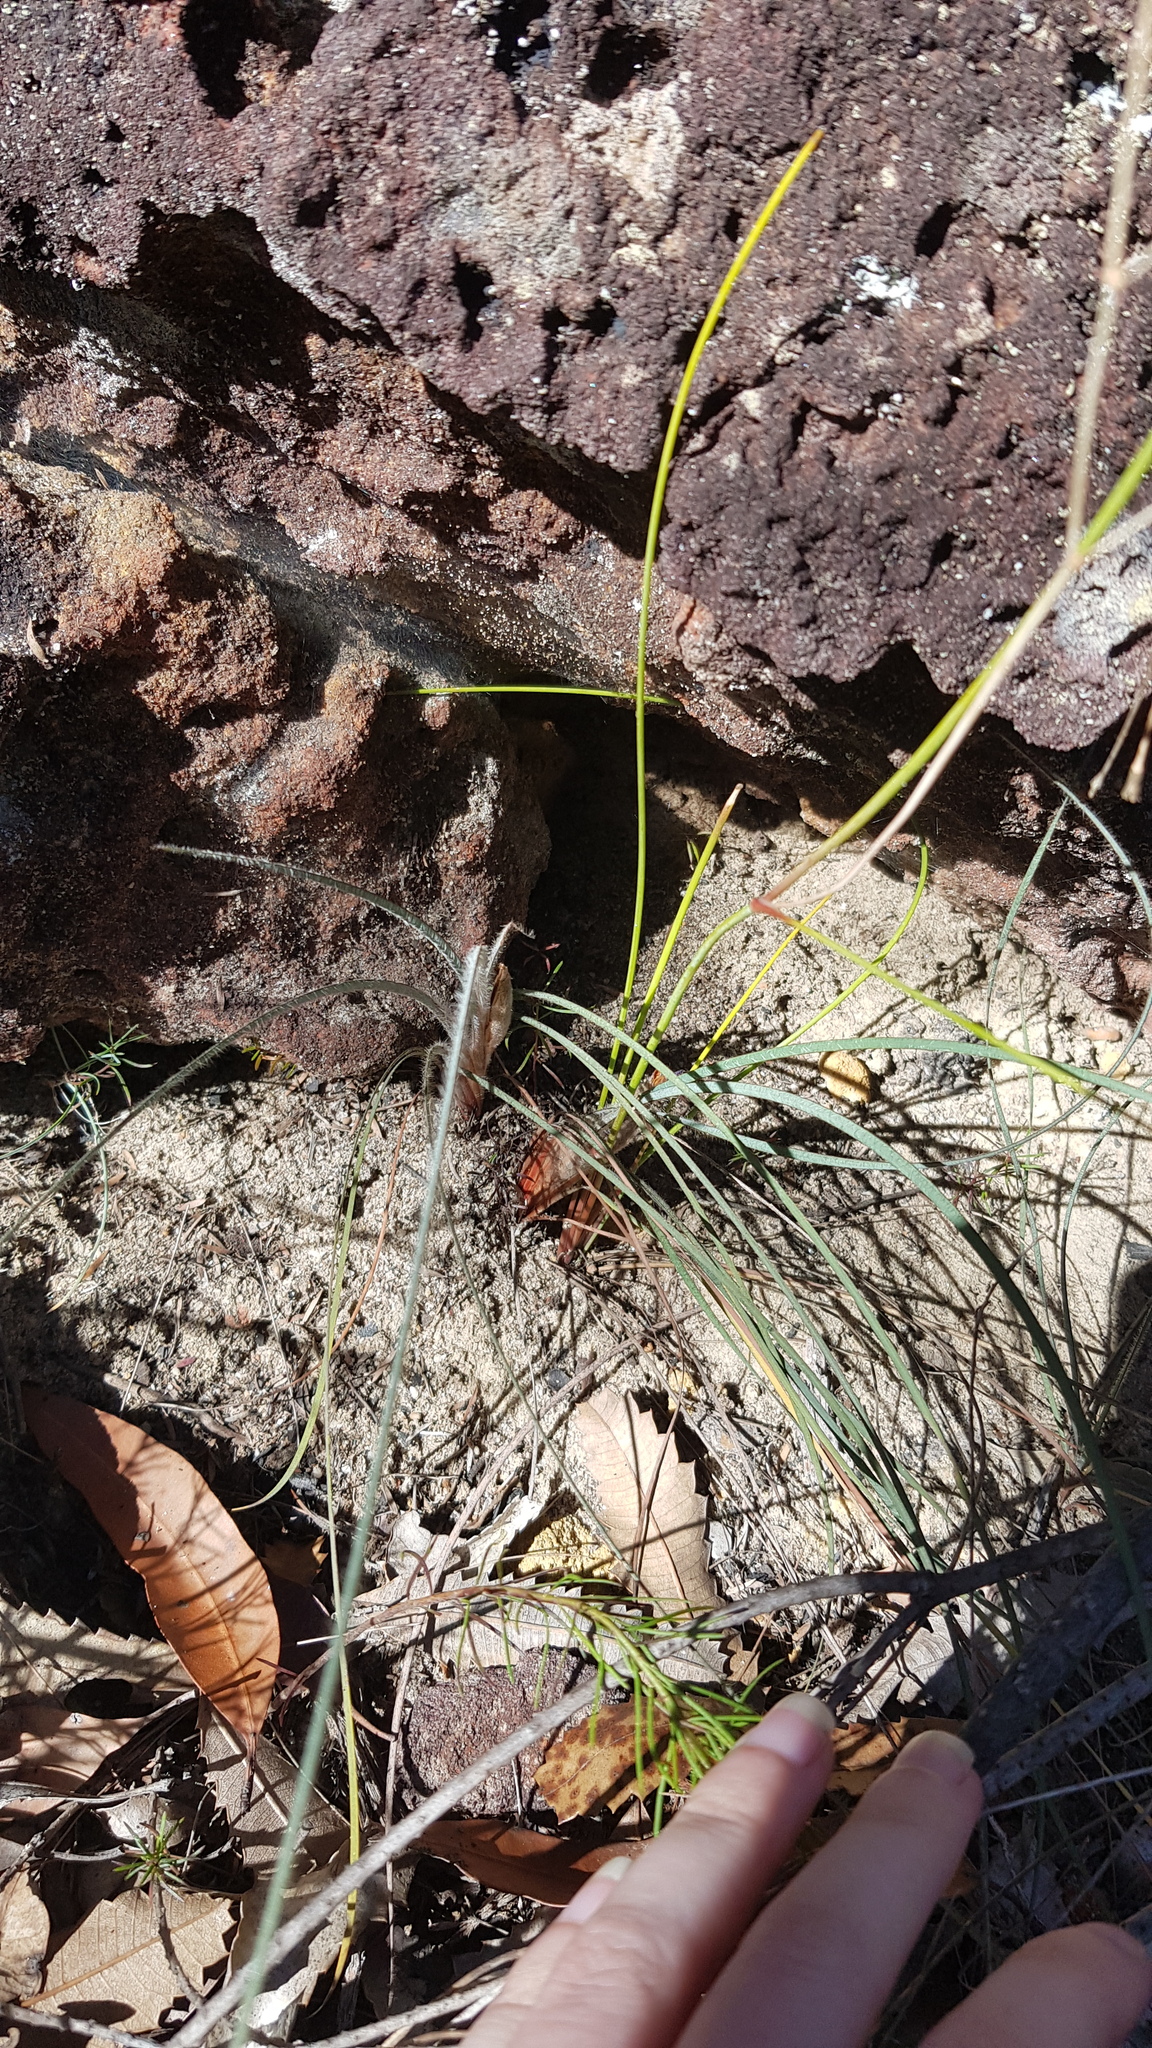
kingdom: Plantae
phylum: Tracheophyta
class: Liliopsida
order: Asparagales
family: Iridaceae
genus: Patersonia
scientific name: Patersonia sericea
